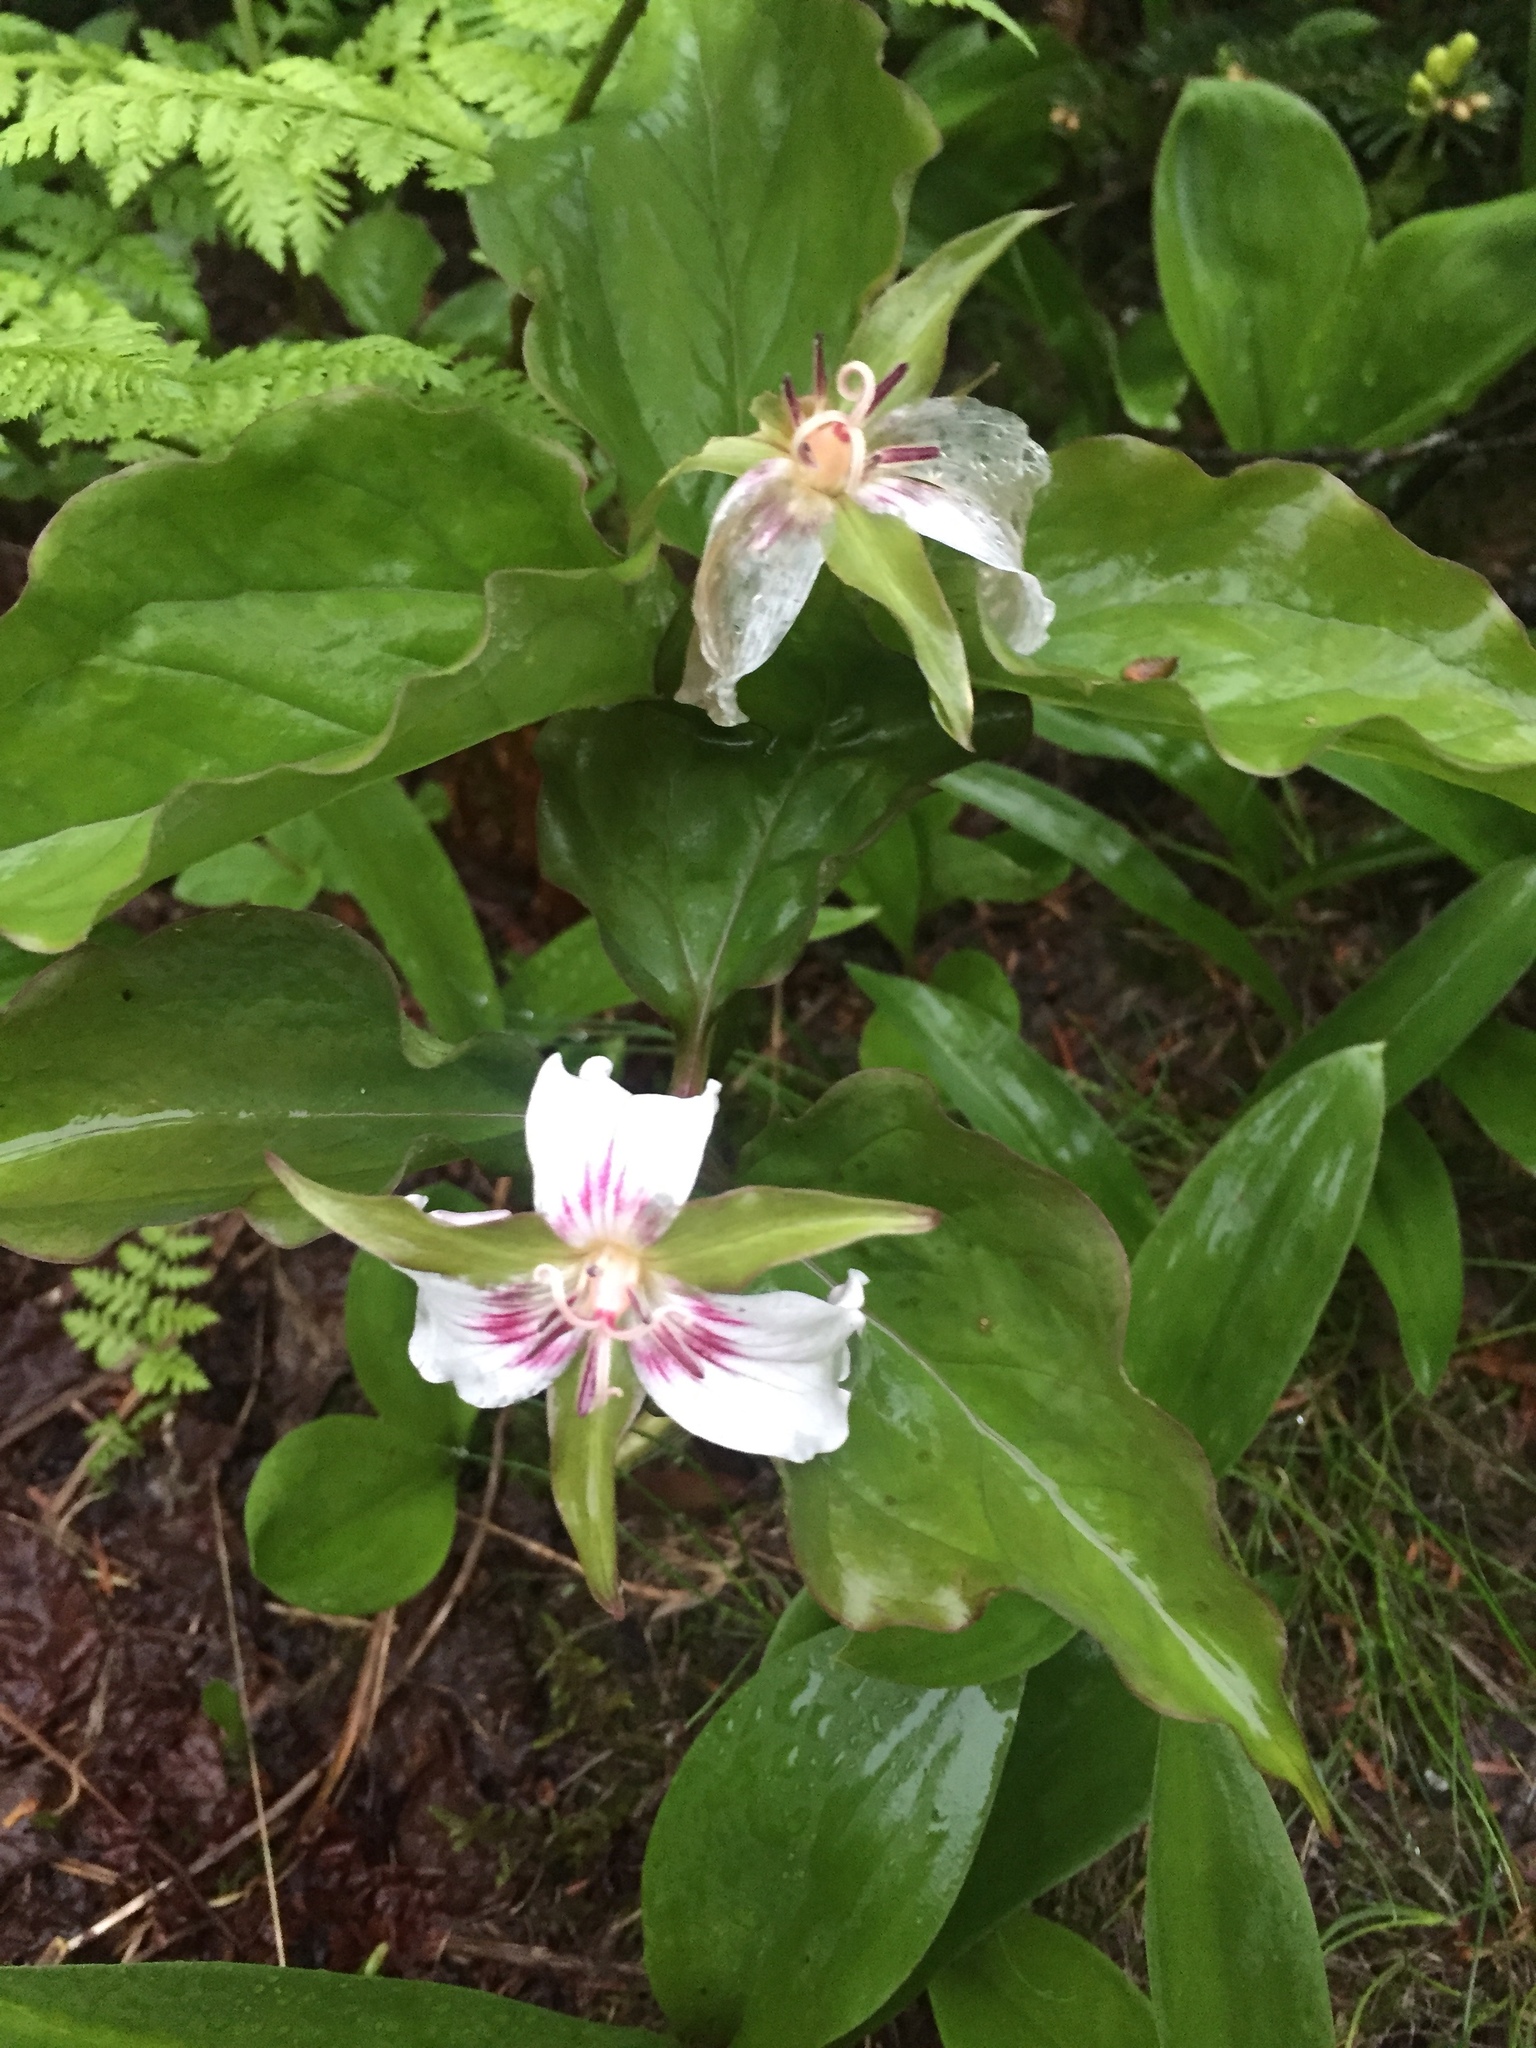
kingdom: Plantae
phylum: Tracheophyta
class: Liliopsida
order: Liliales
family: Melanthiaceae
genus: Trillium
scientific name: Trillium undulatum
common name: Paint trillium
